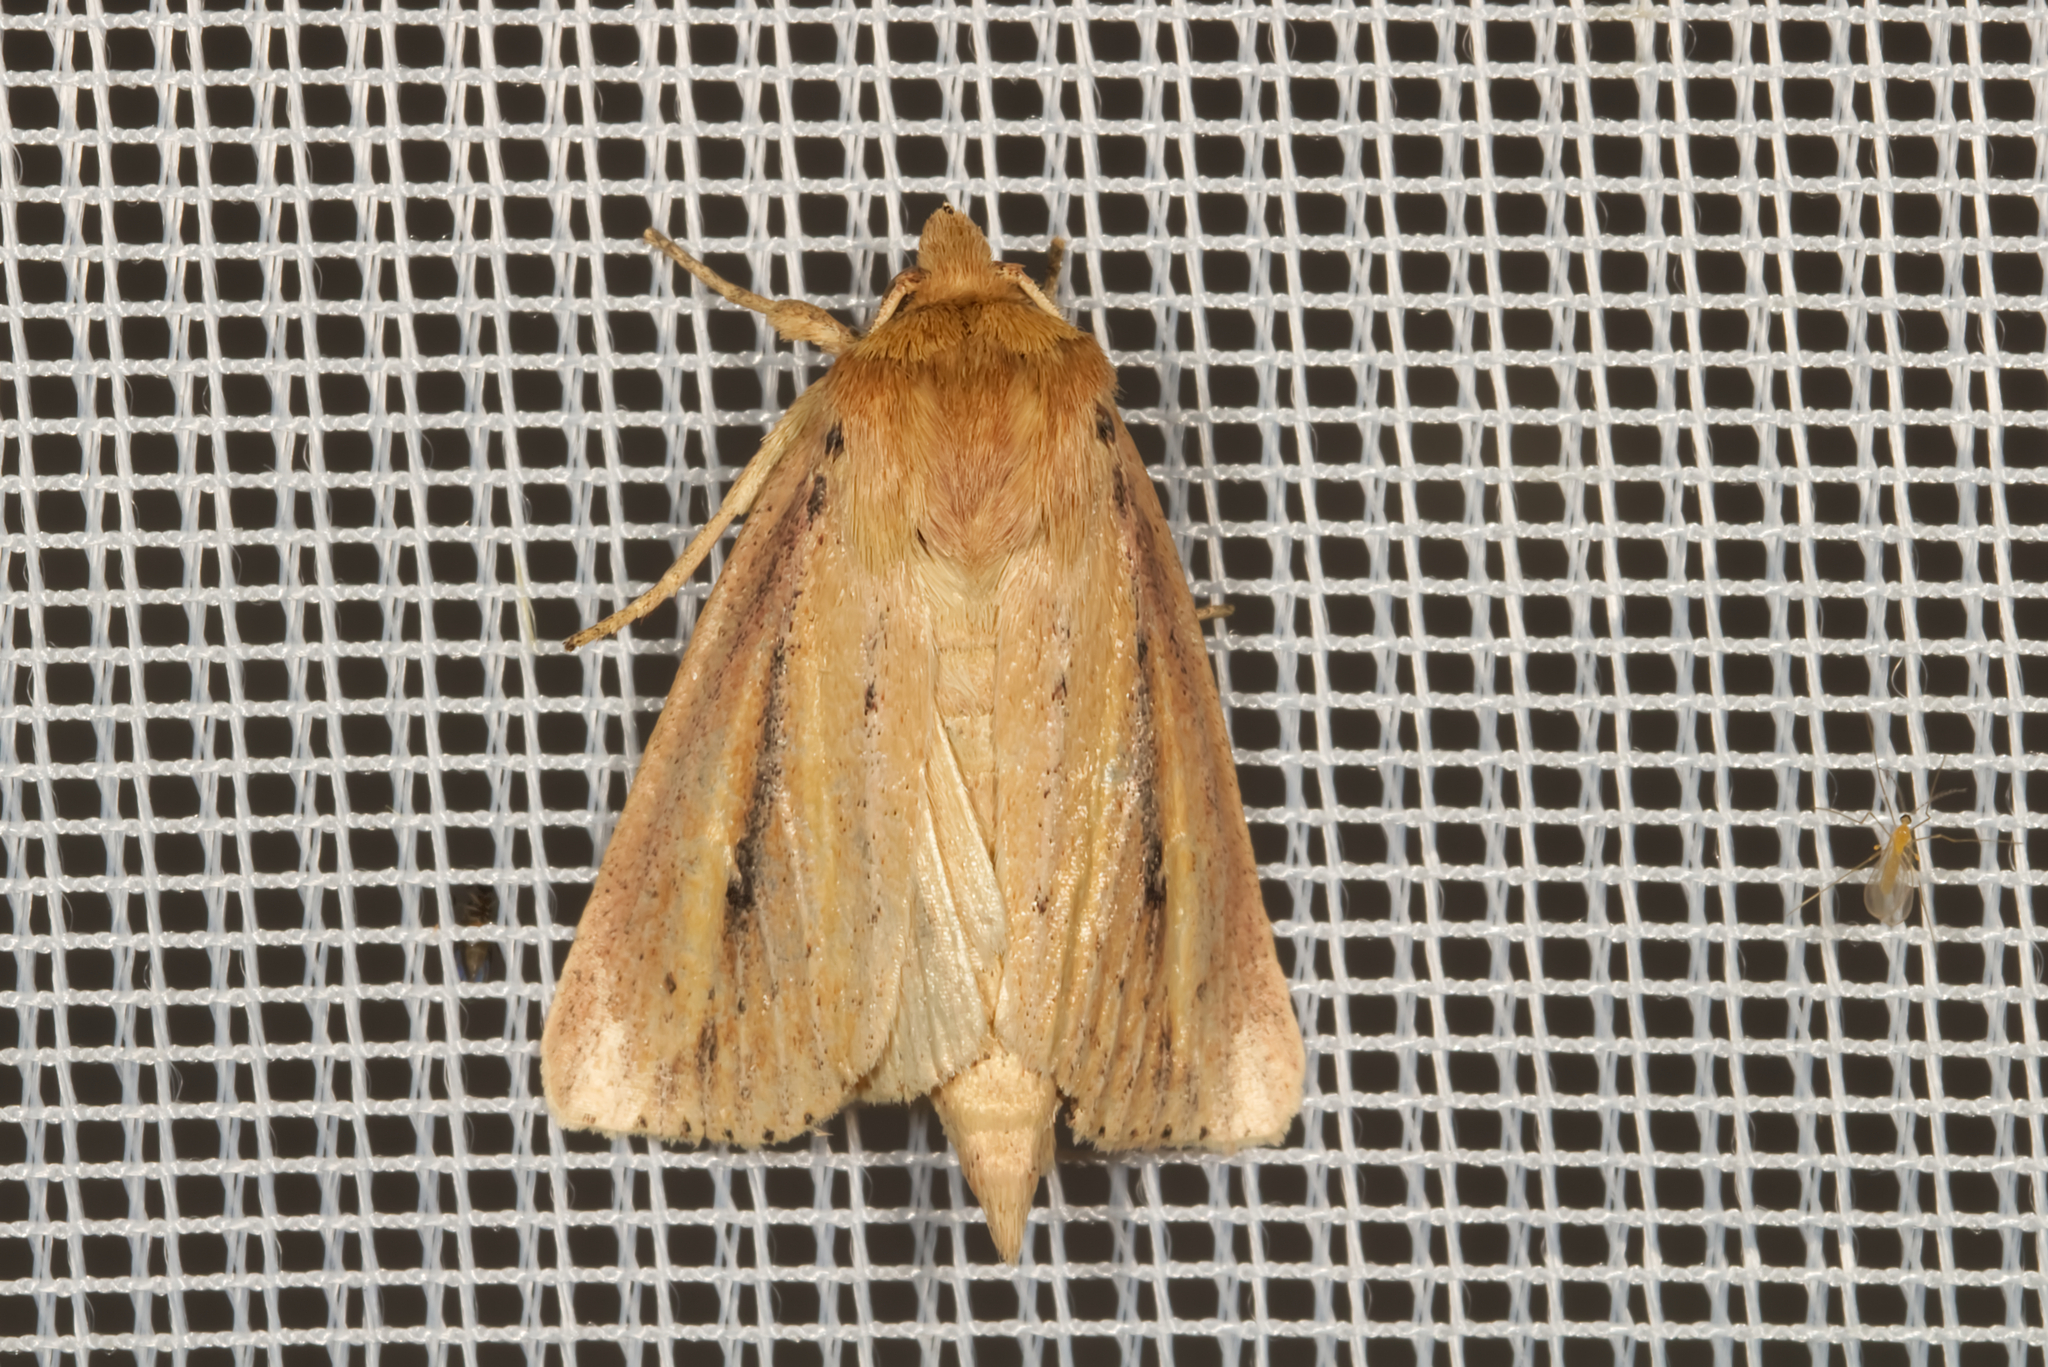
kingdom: Animalia
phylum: Arthropoda
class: Insecta
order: Lepidoptera
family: Noctuidae
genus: Globia
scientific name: Globia sparganii
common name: Webb's wainscot
